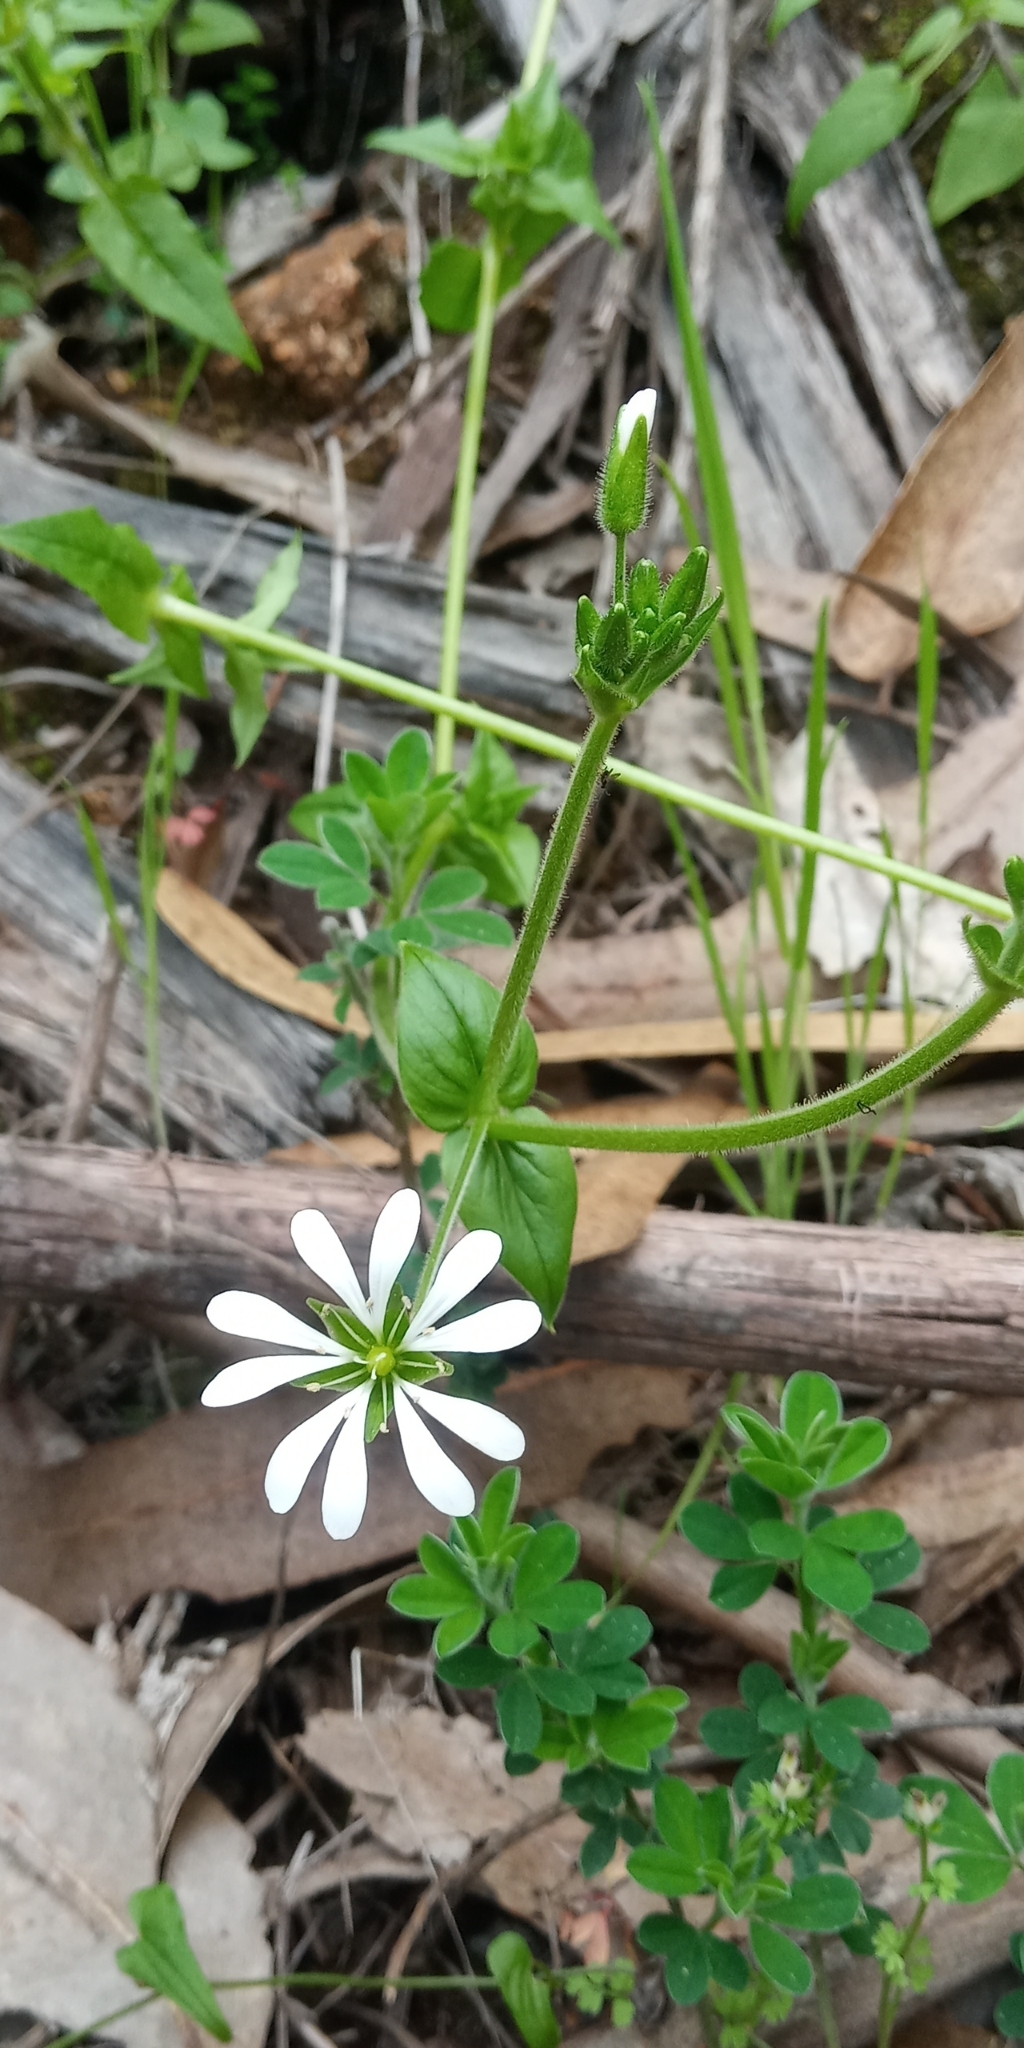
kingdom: Plantae
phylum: Tracheophyta
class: Magnoliopsida
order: Caryophyllales
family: Caryophyllaceae
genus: Stellaria
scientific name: Stellaria chilensis
